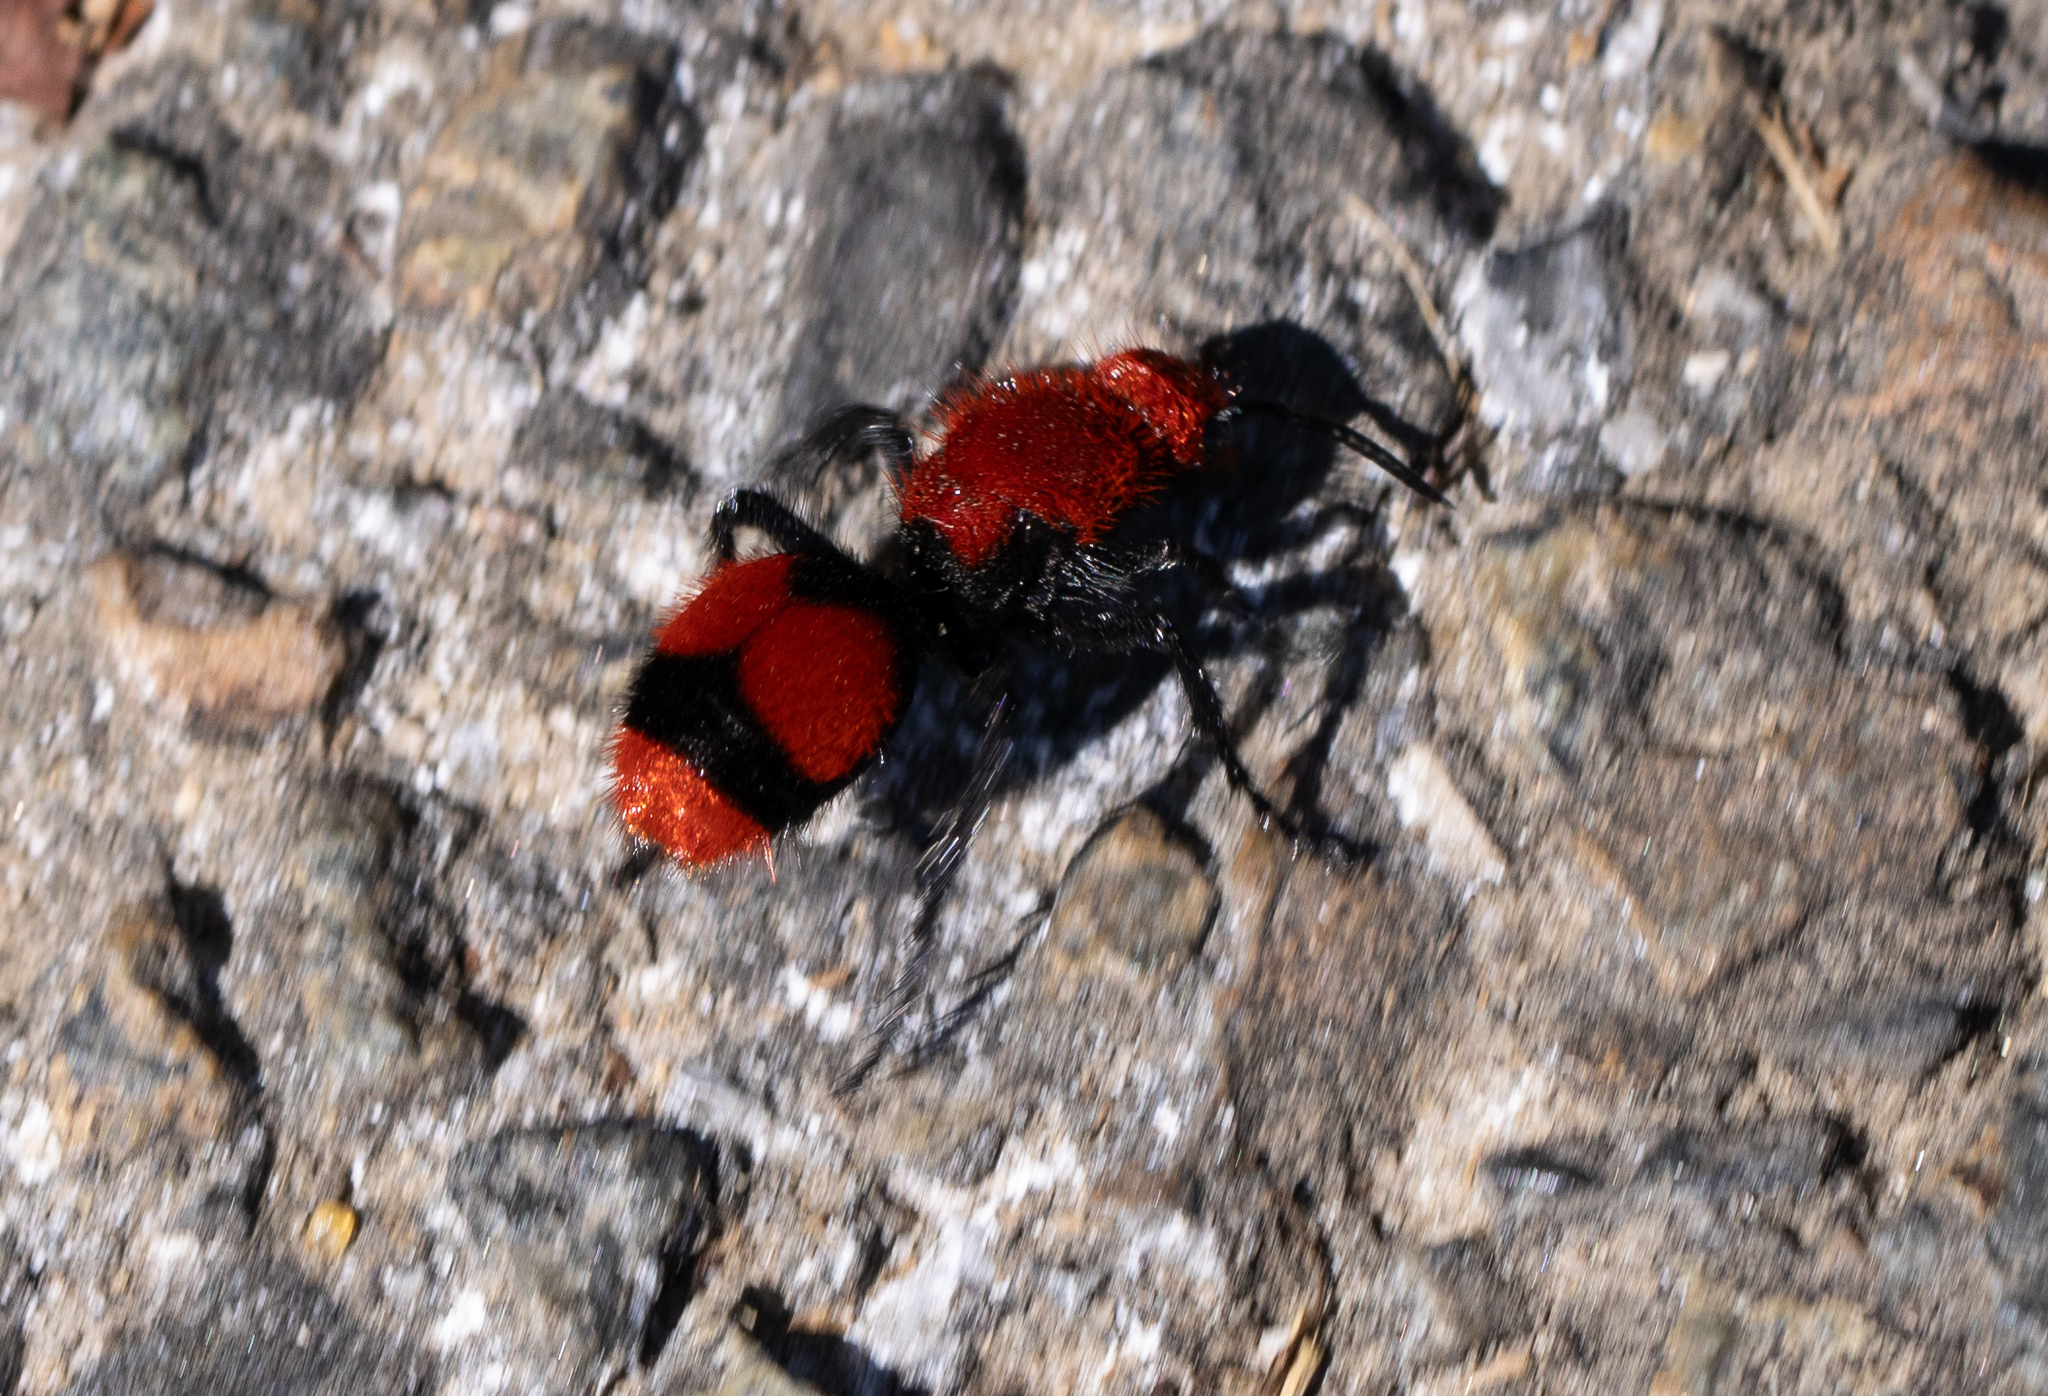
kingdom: Animalia
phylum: Arthropoda
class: Insecta
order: Hymenoptera
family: Mutillidae
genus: Dasymutilla
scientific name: Dasymutilla occidentalis
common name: Common eastern velvet ant
